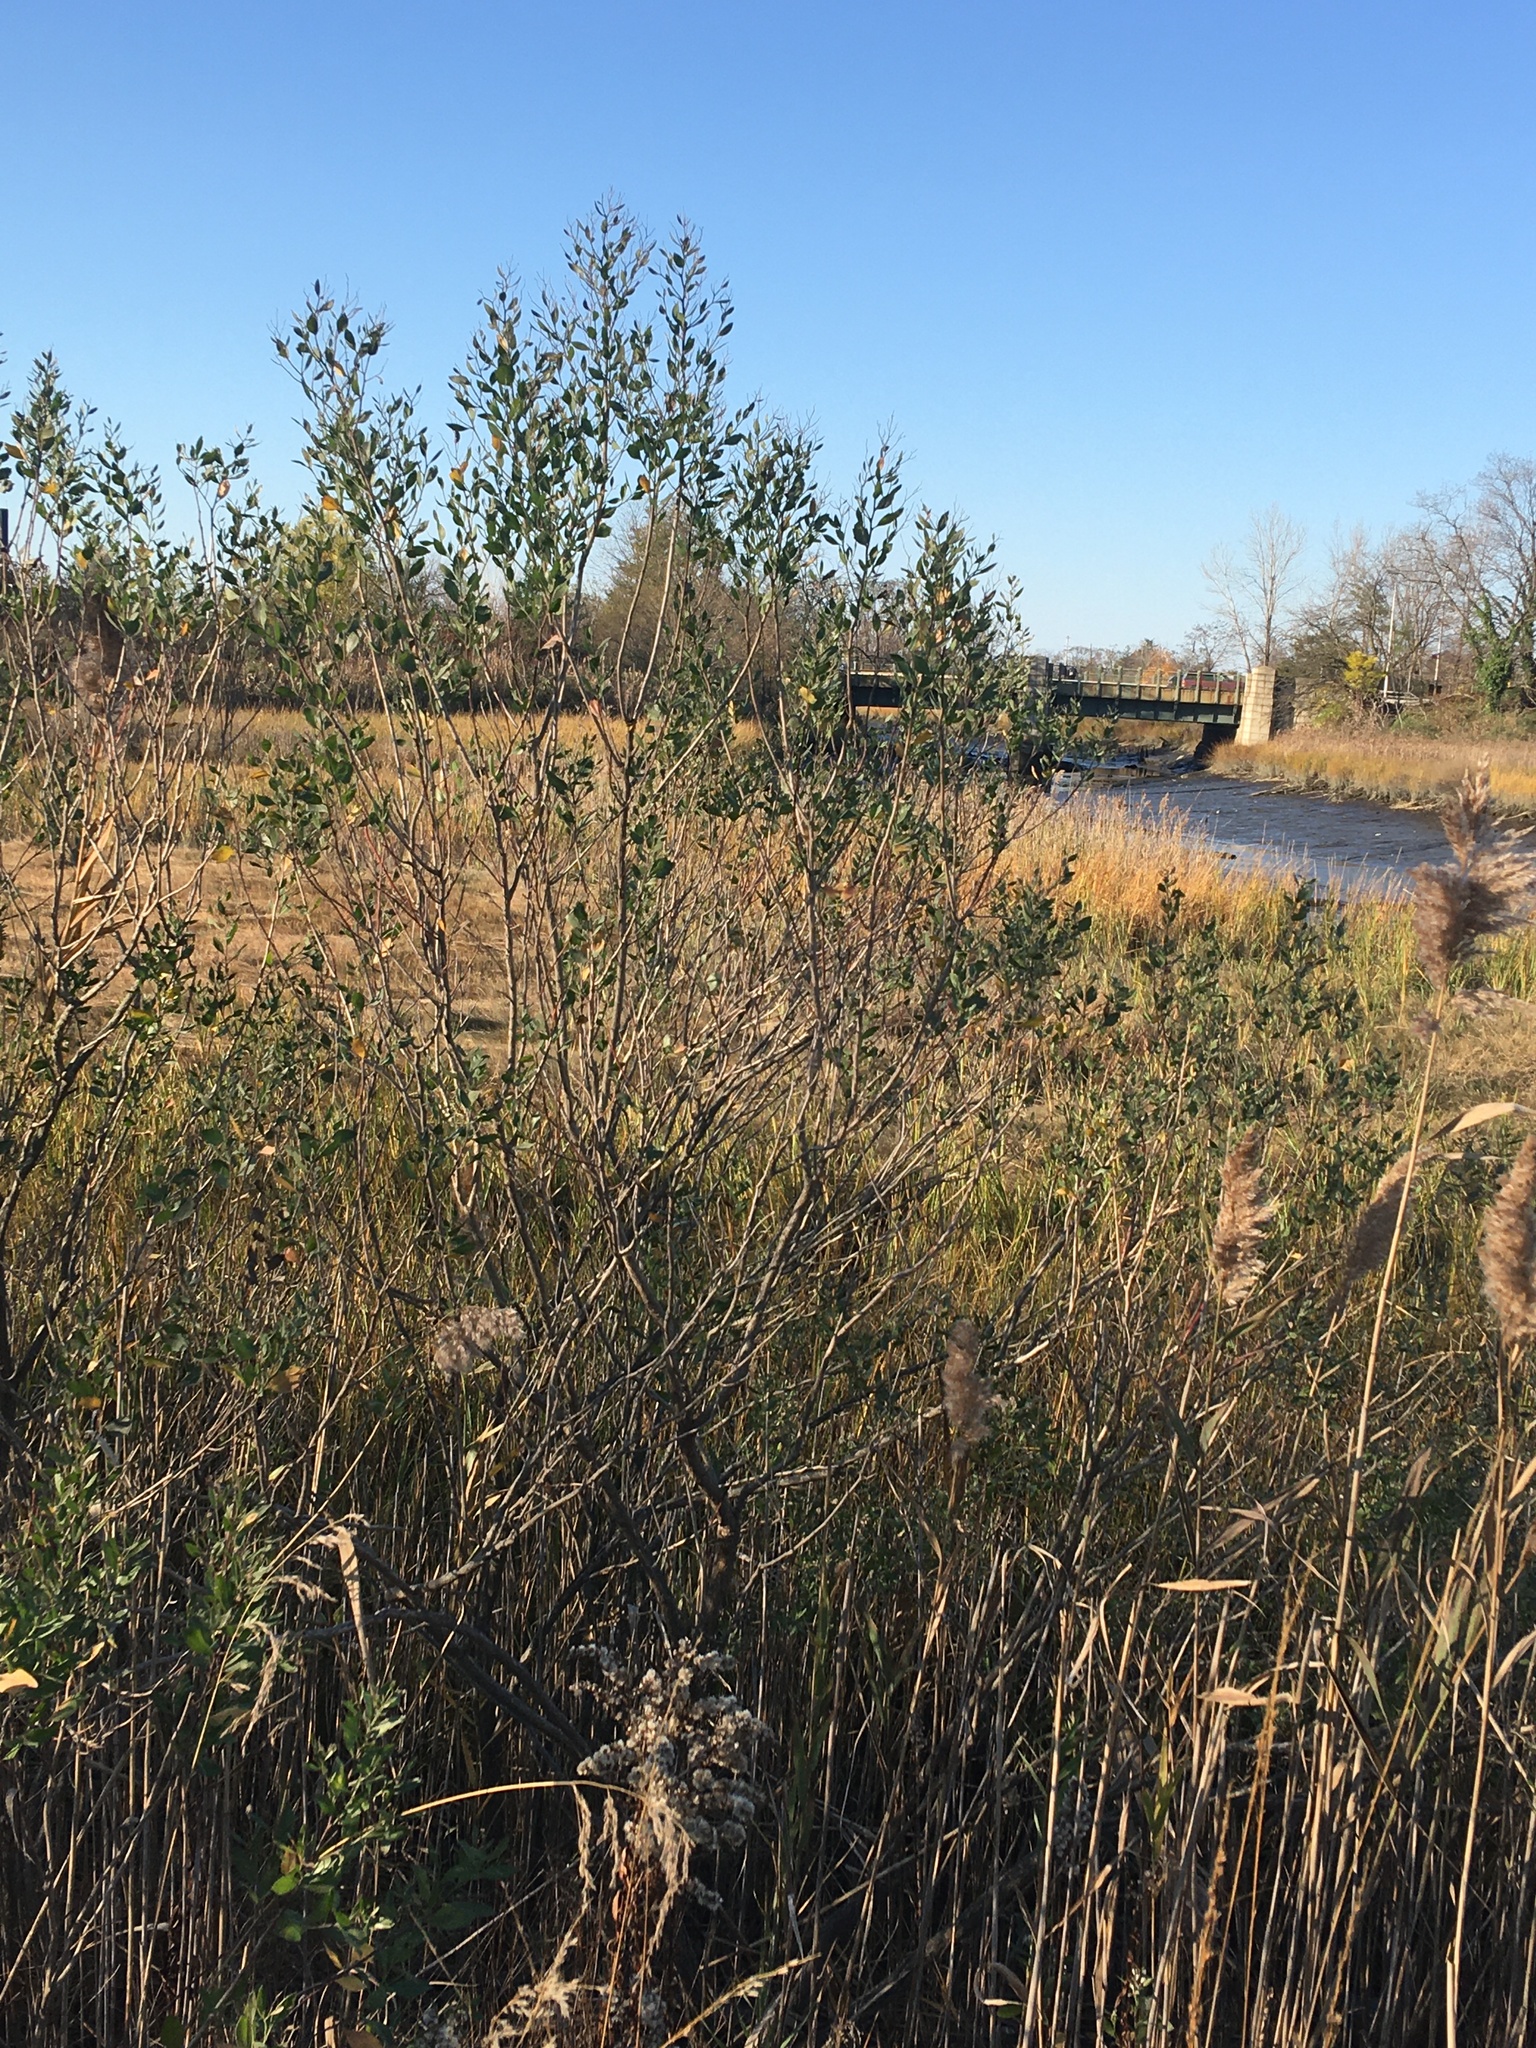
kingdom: Plantae
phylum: Tracheophyta
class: Magnoliopsida
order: Asterales
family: Asteraceae
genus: Baccharis
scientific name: Baccharis halimifolia
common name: Eastern baccharis
